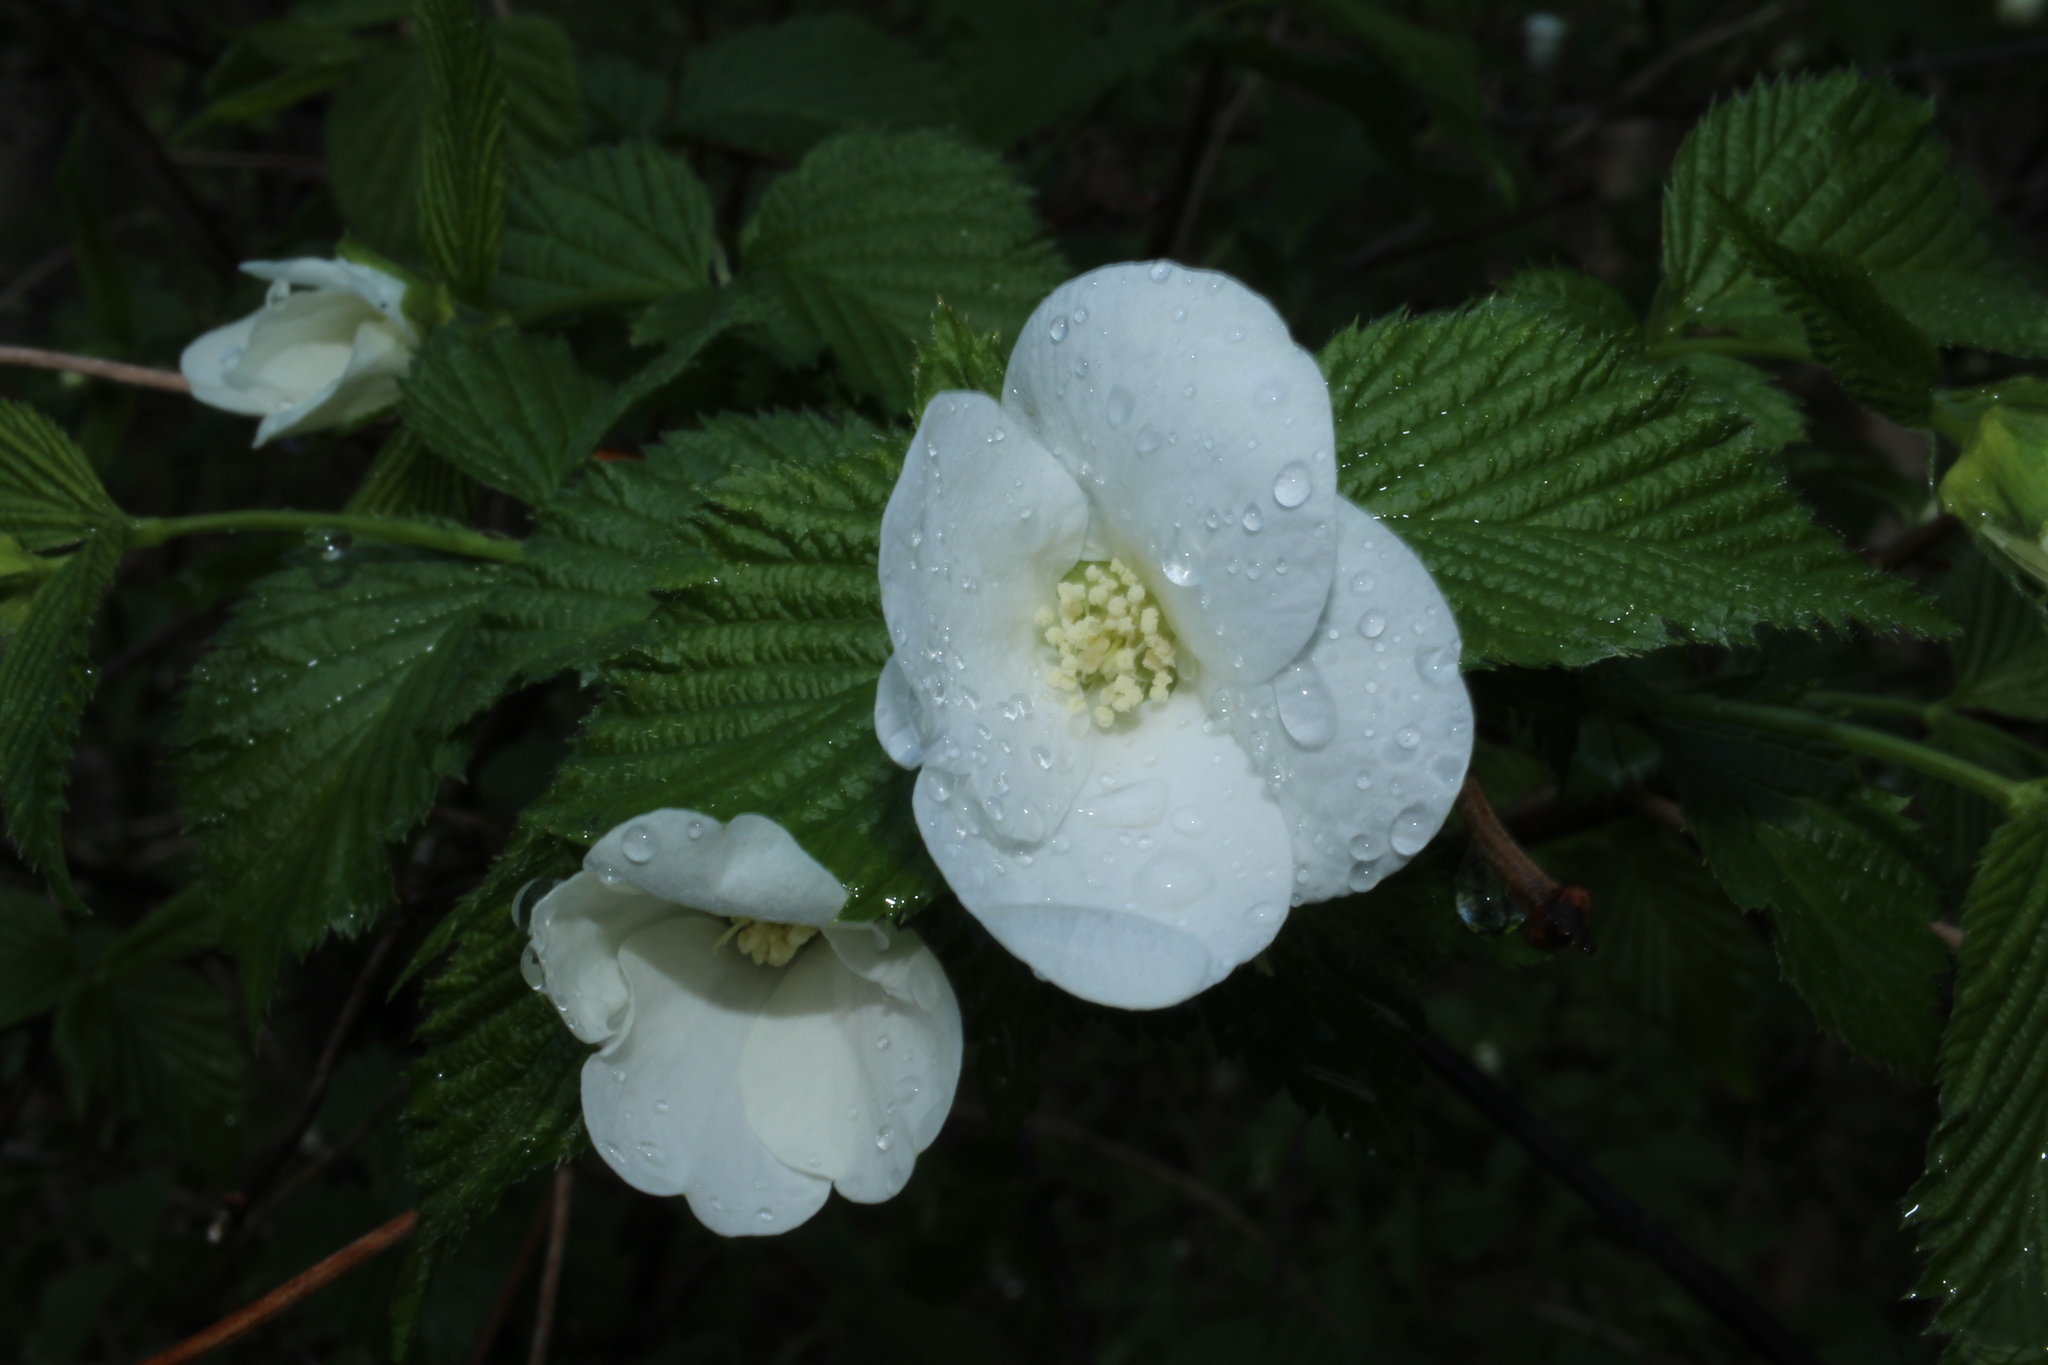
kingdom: Plantae
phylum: Tracheophyta
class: Magnoliopsida
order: Rosales
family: Rosaceae
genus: Rhodotypos
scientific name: Rhodotypos scandens
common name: Jetbead
